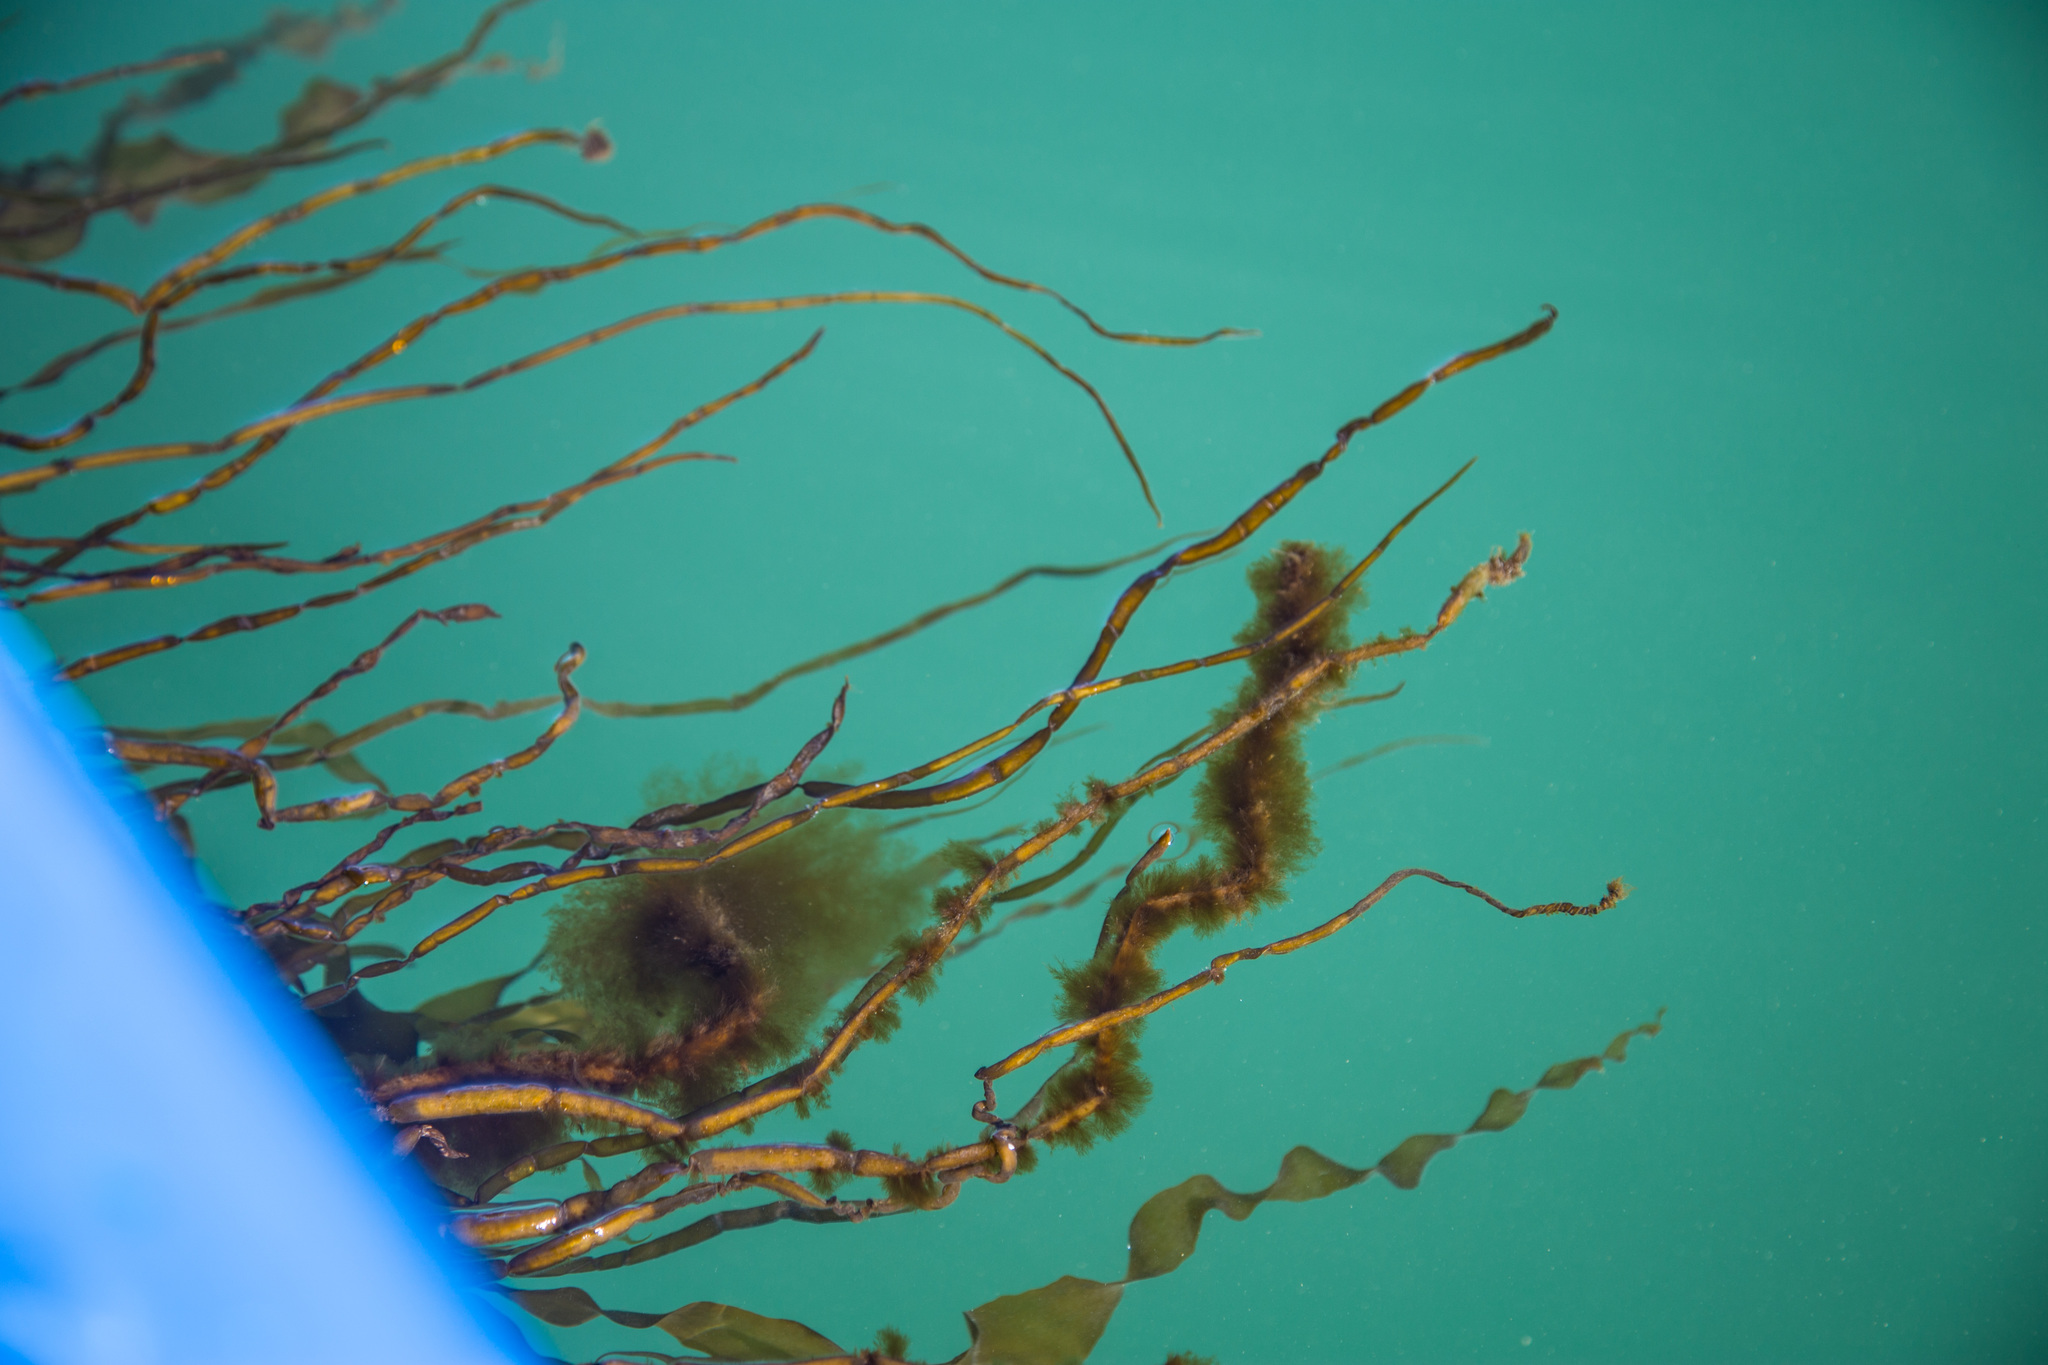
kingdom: Chromista
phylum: Ochrophyta
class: Phaeophyceae
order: Scytosiphonales
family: Scytosiphonaceae
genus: Scytosiphon
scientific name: Scytosiphon lomentaria
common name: Beanweed
